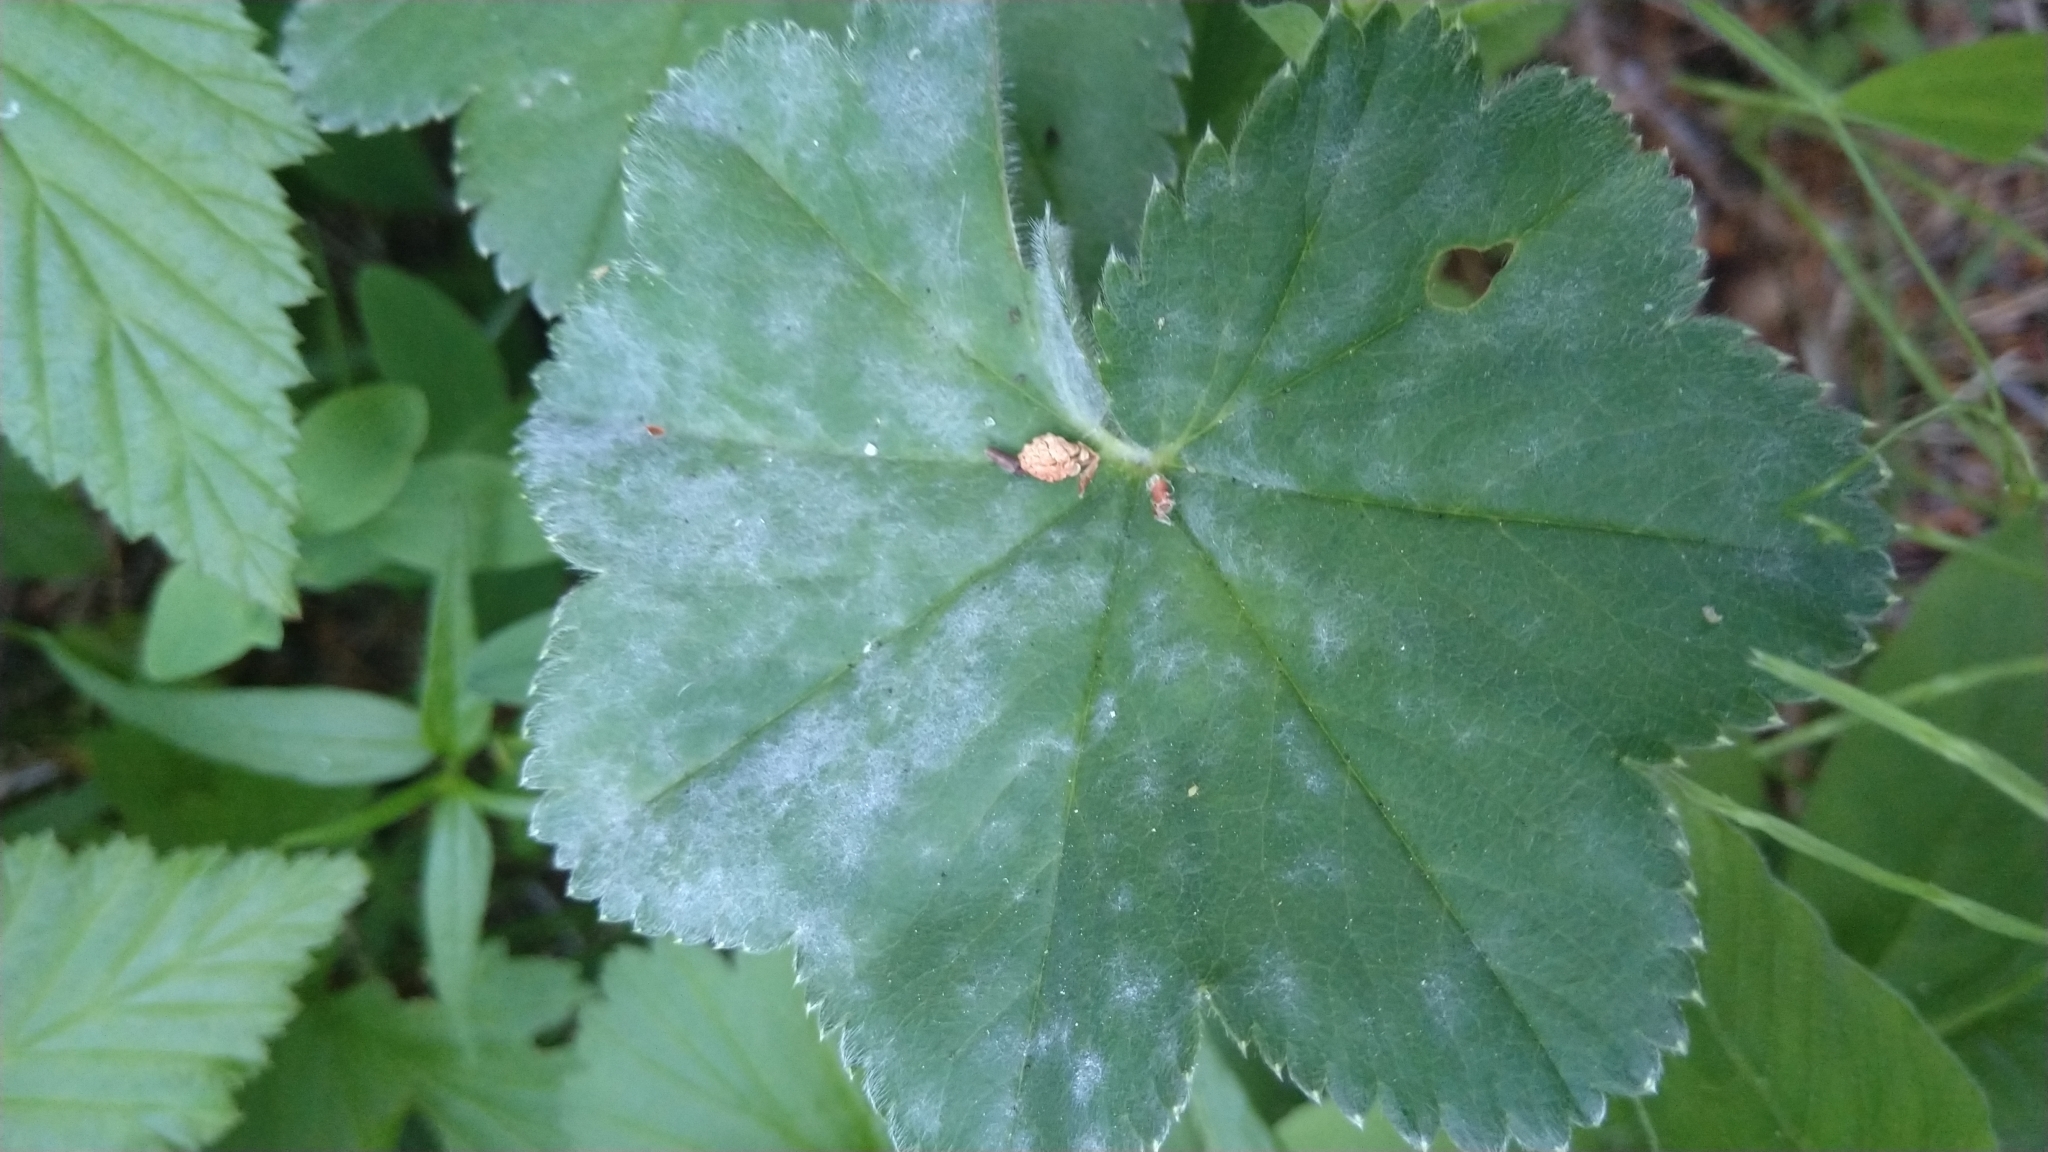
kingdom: Fungi
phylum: Ascomycota
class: Leotiomycetes
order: Helotiales
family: Erysiphaceae
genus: Podosphaera
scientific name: Podosphaera aphanis
